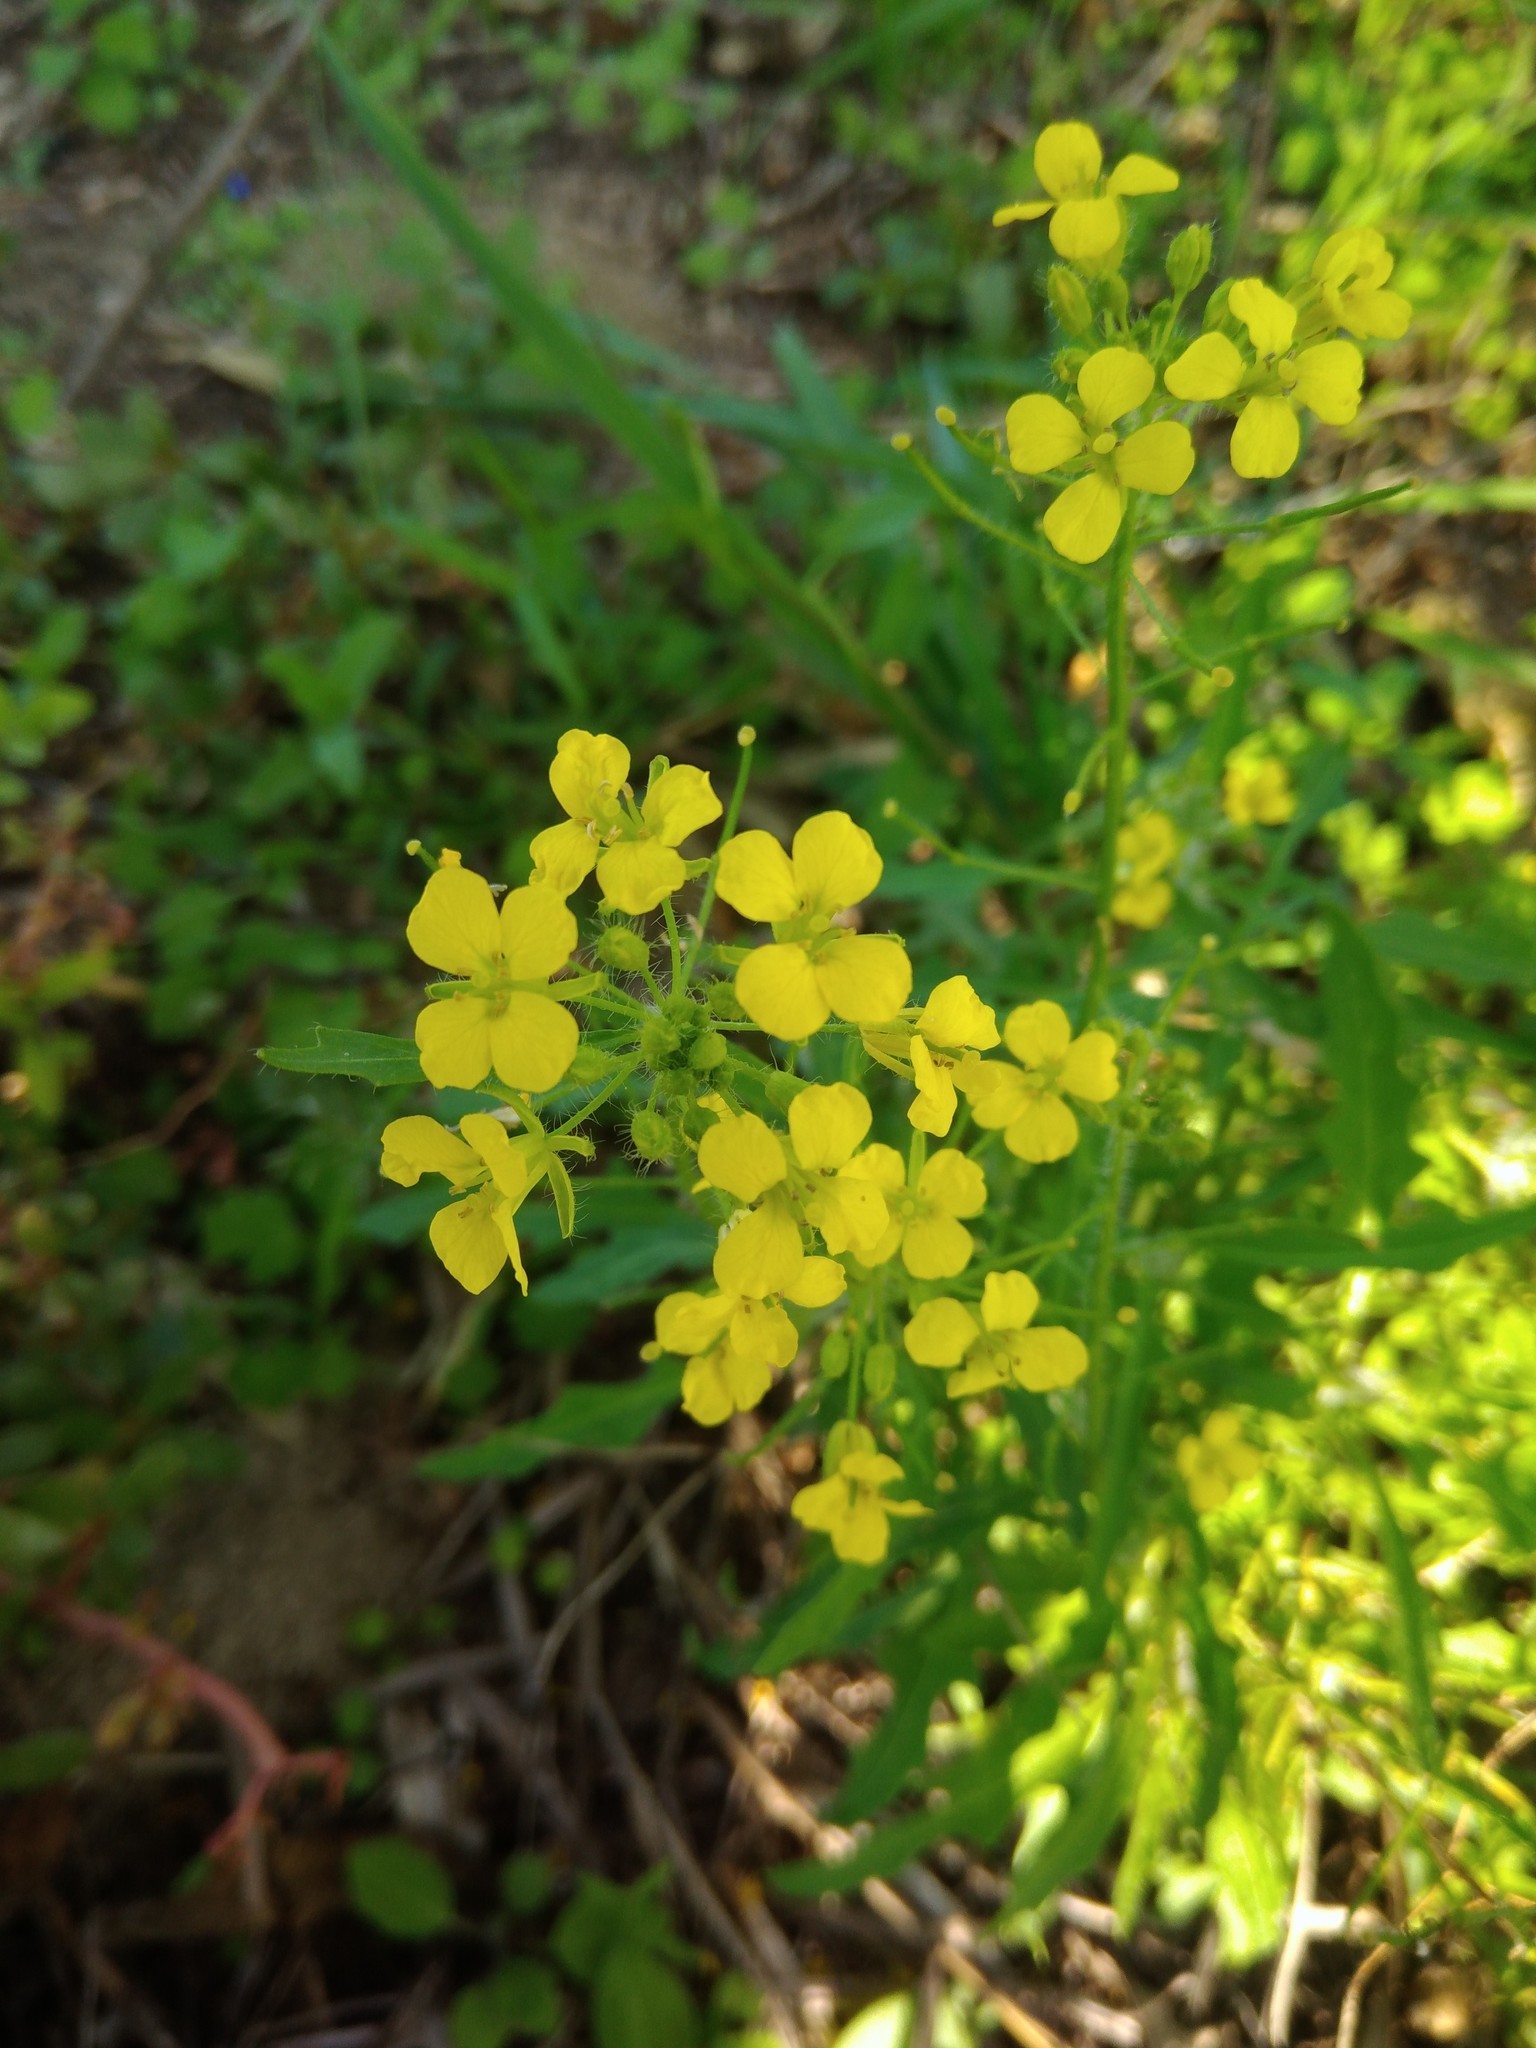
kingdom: Plantae
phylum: Tracheophyta
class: Magnoliopsida
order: Brassicales
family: Brassicaceae
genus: Sisymbrium
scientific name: Sisymbrium loeselii
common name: False london-rocket
